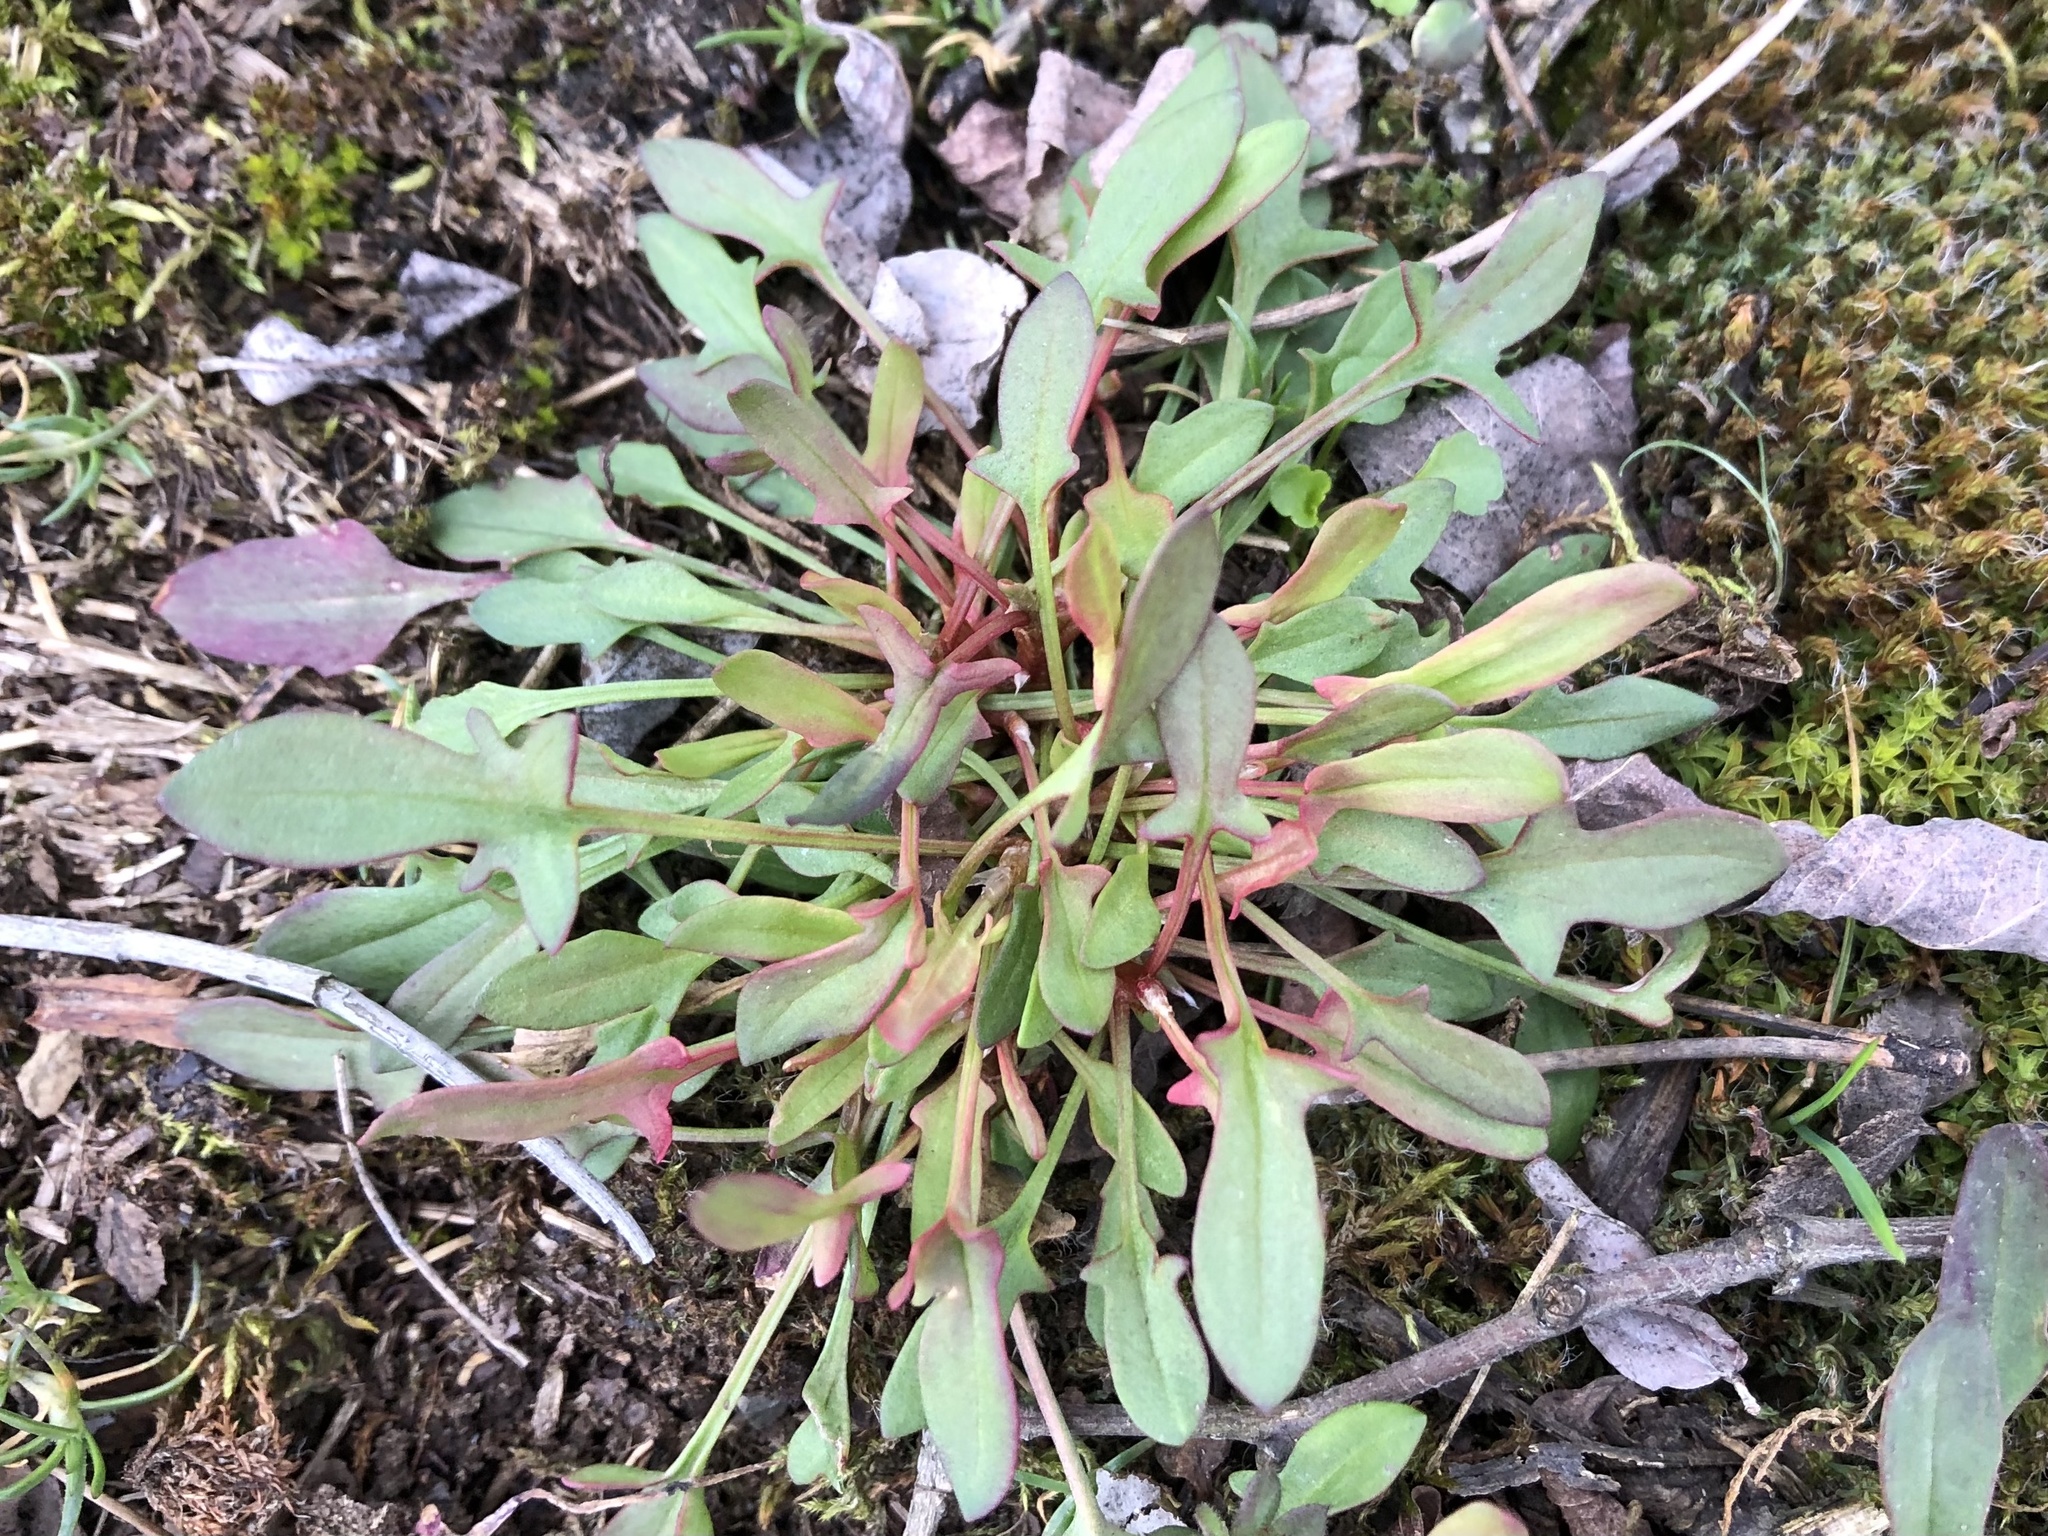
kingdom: Plantae
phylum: Tracheophyta
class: Magnoliopsida
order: Caryophyllales
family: Polygonaceae
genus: Rumex
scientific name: Rumex acetosella
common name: Common sheep sorrel
